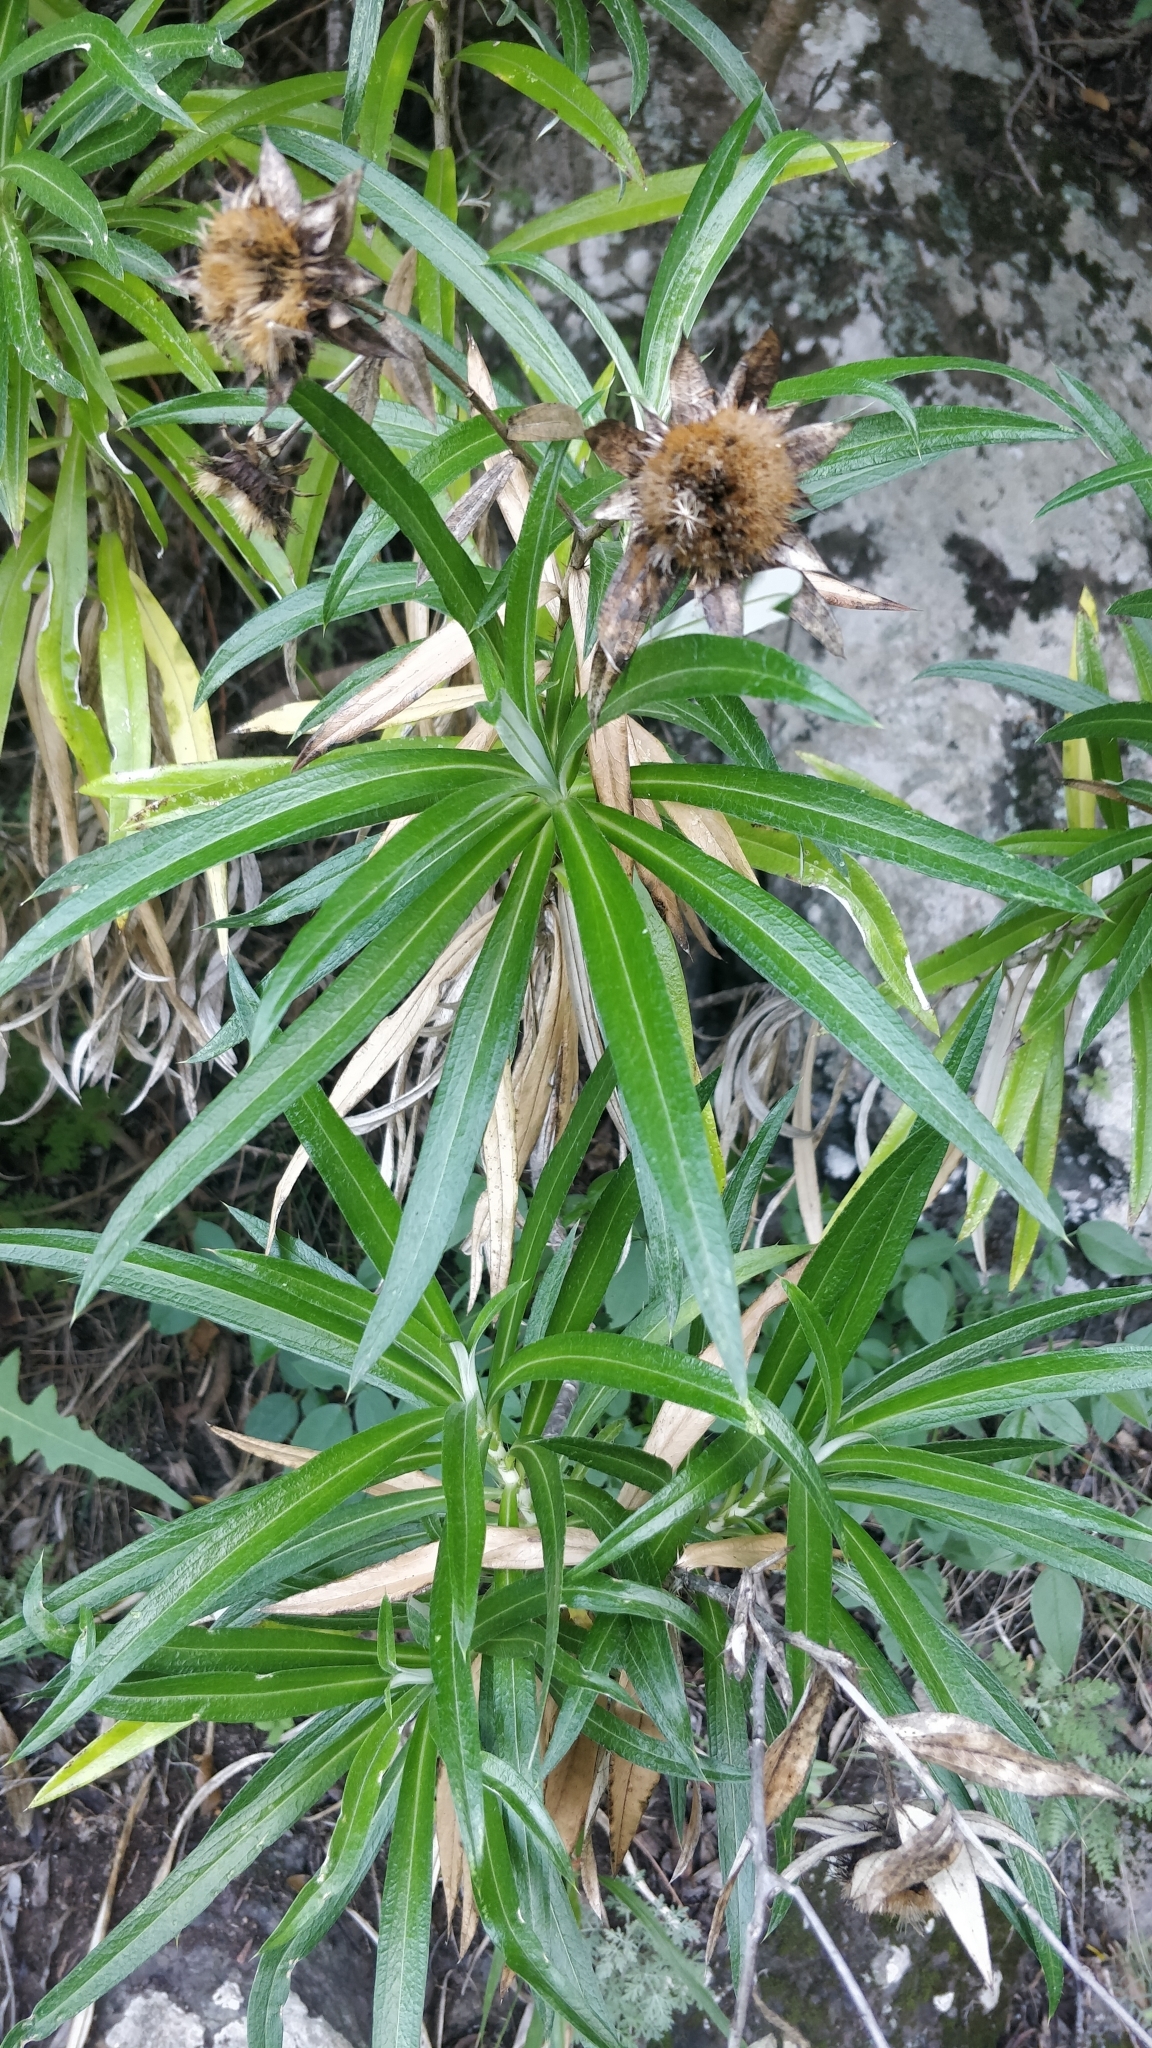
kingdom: Plantae
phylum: Tracheophyta
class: Magnoliopsida
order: Asterales
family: Asteraceae
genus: Carlina
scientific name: Carlina salicifolia
